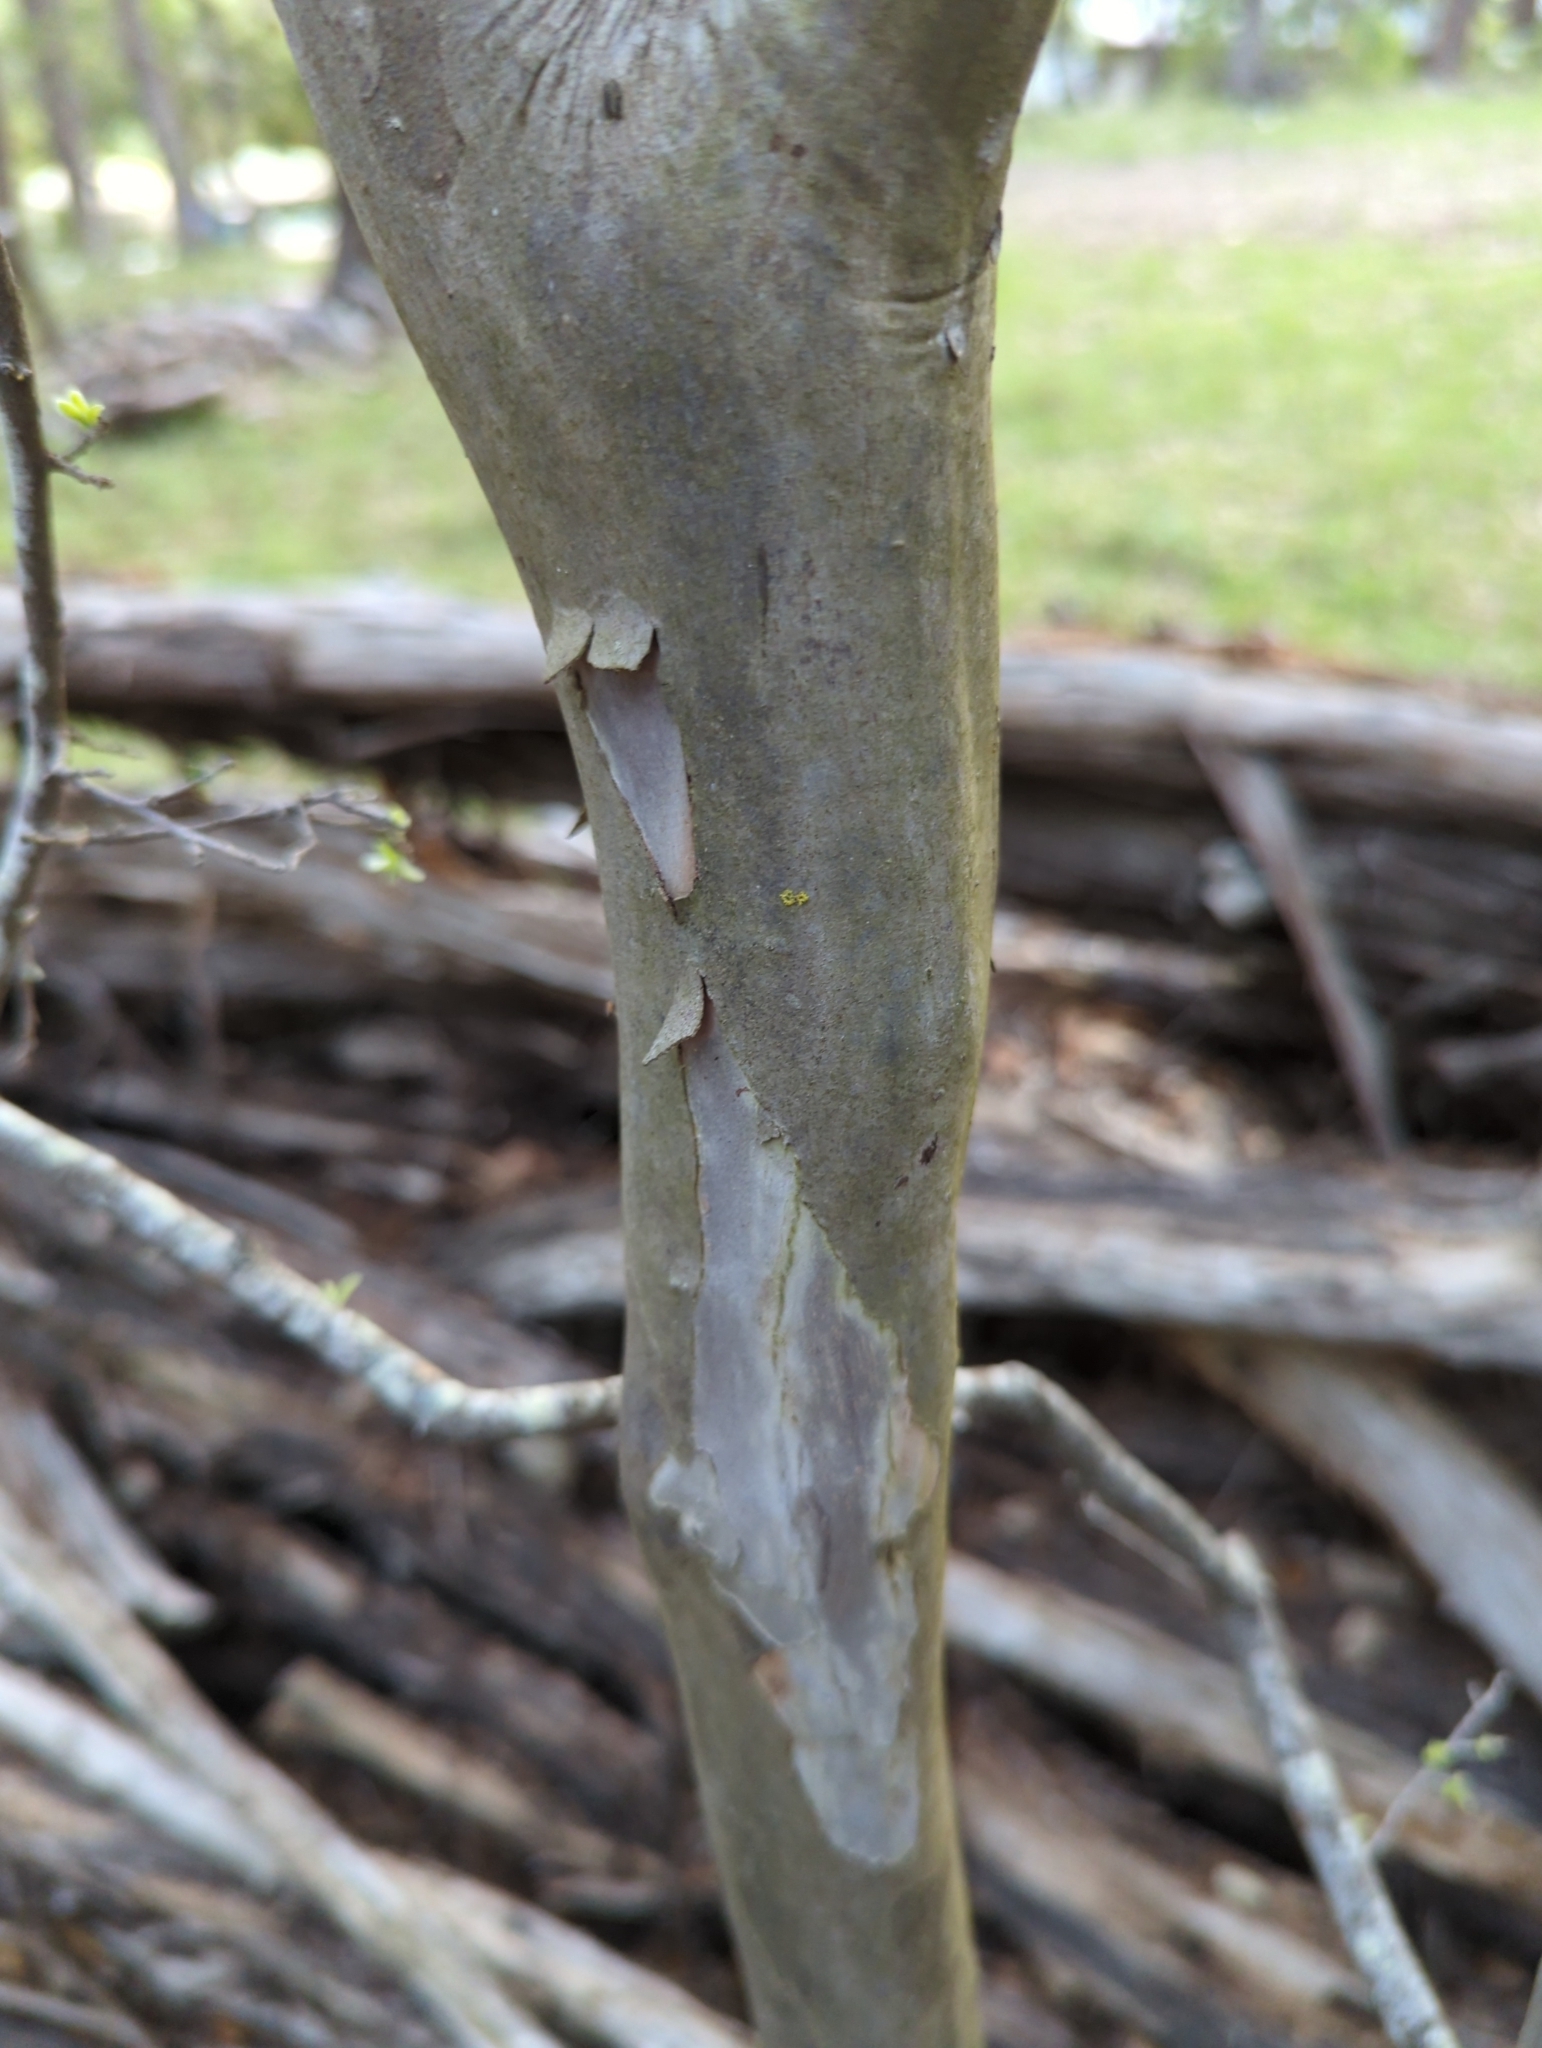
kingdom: Plantae
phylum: Tracheophyta
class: Magnoliopsida
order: Ericales
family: Ebenaceae
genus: Diospyros
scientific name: Diospyros texana
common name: Texas persimmon
